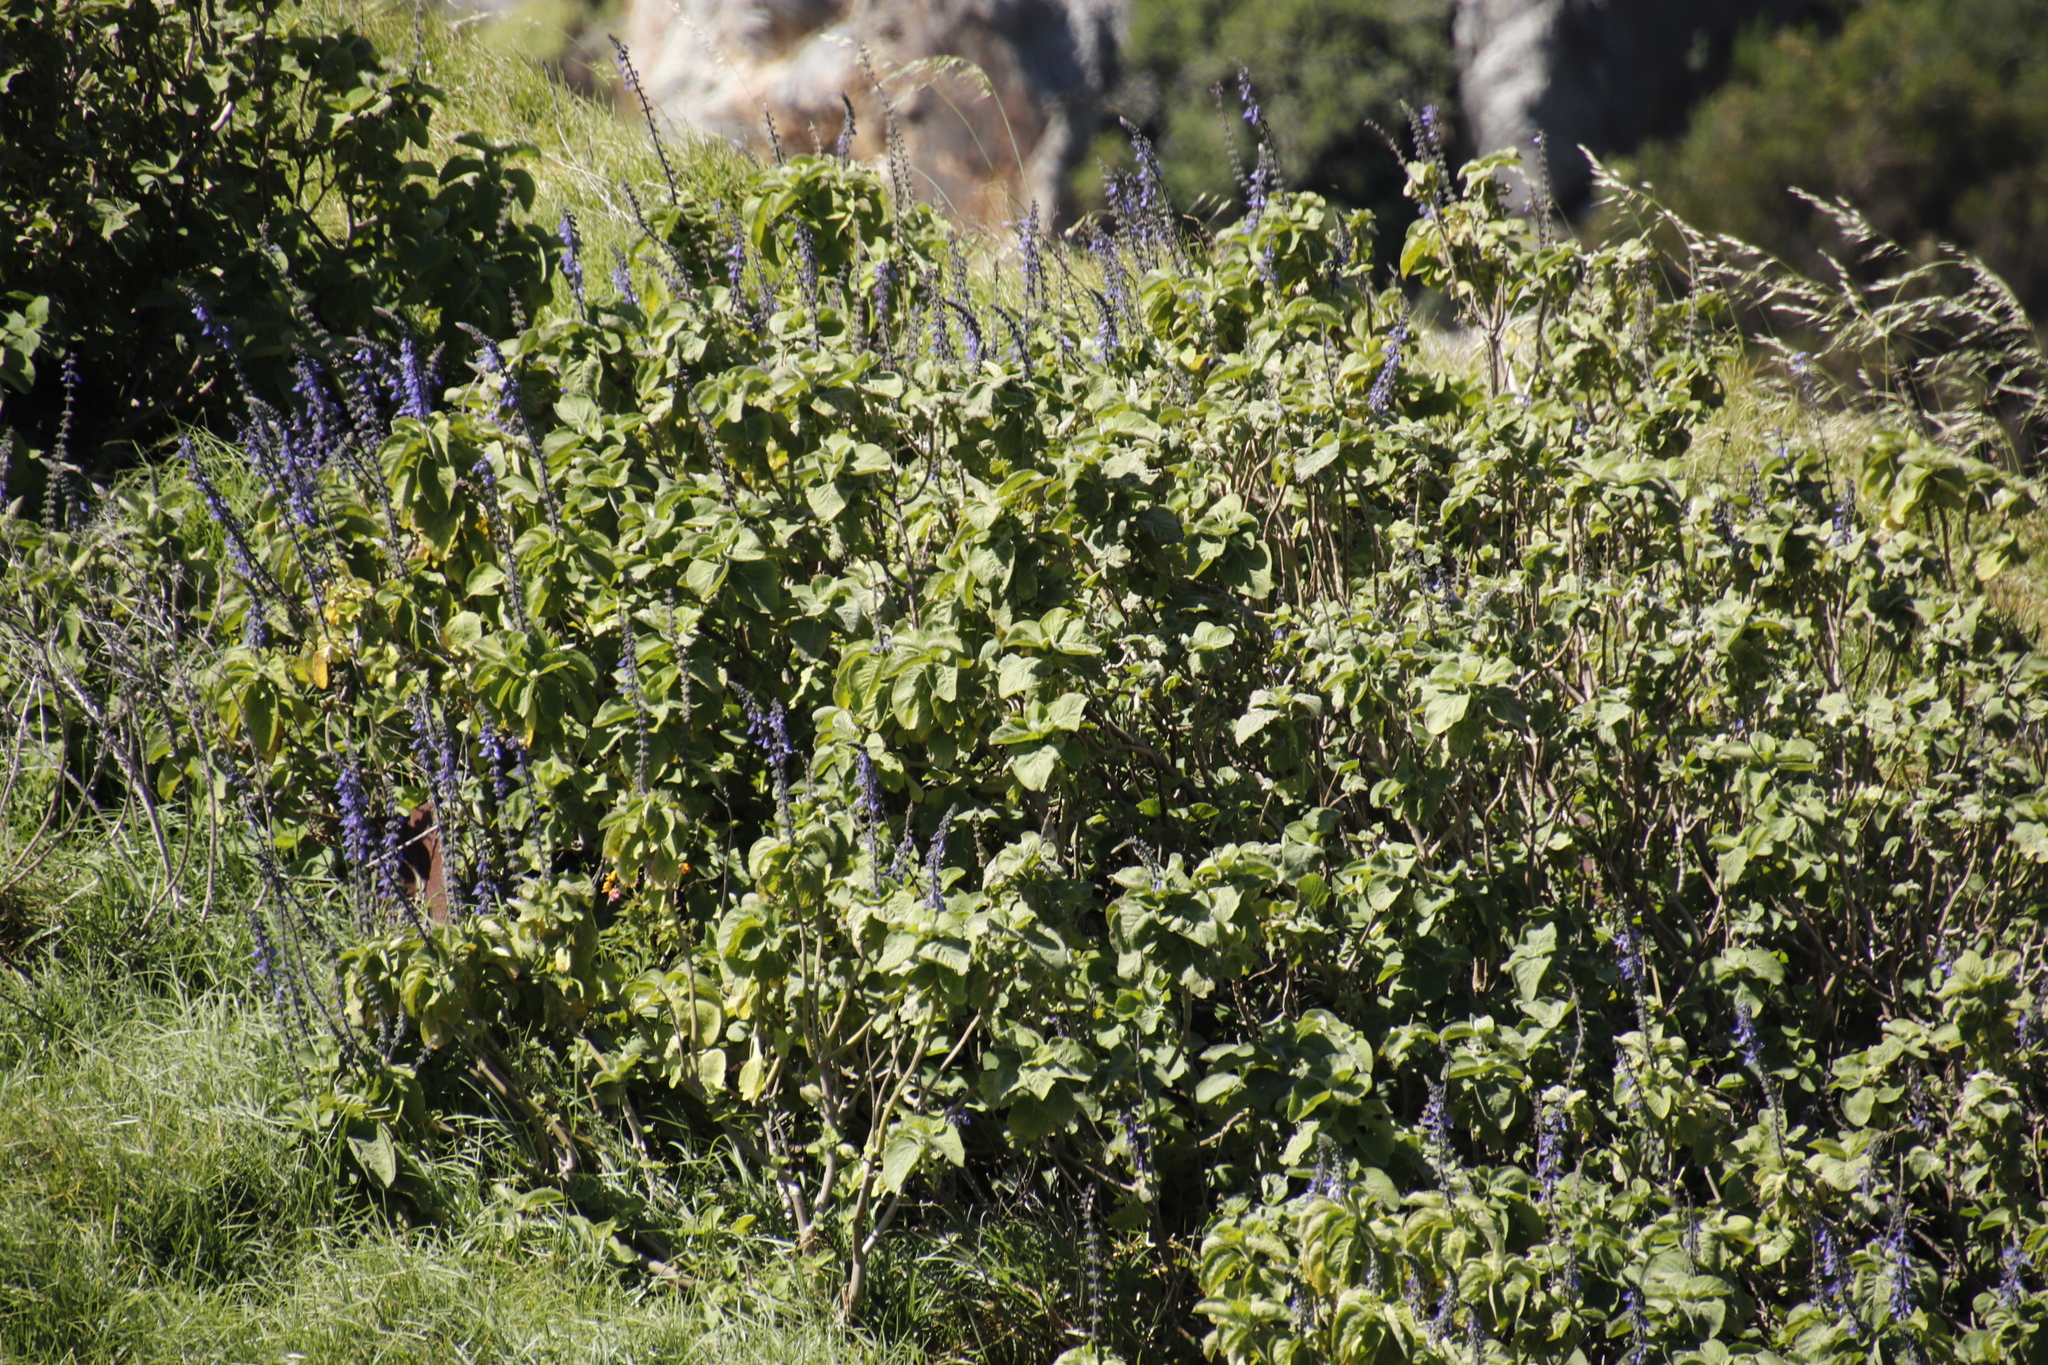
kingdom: Plantae
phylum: Tracheophyta
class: Magnoliopsida
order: Lamiales
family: Lamiaceae
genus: Coleus
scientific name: Coleus barbatus
